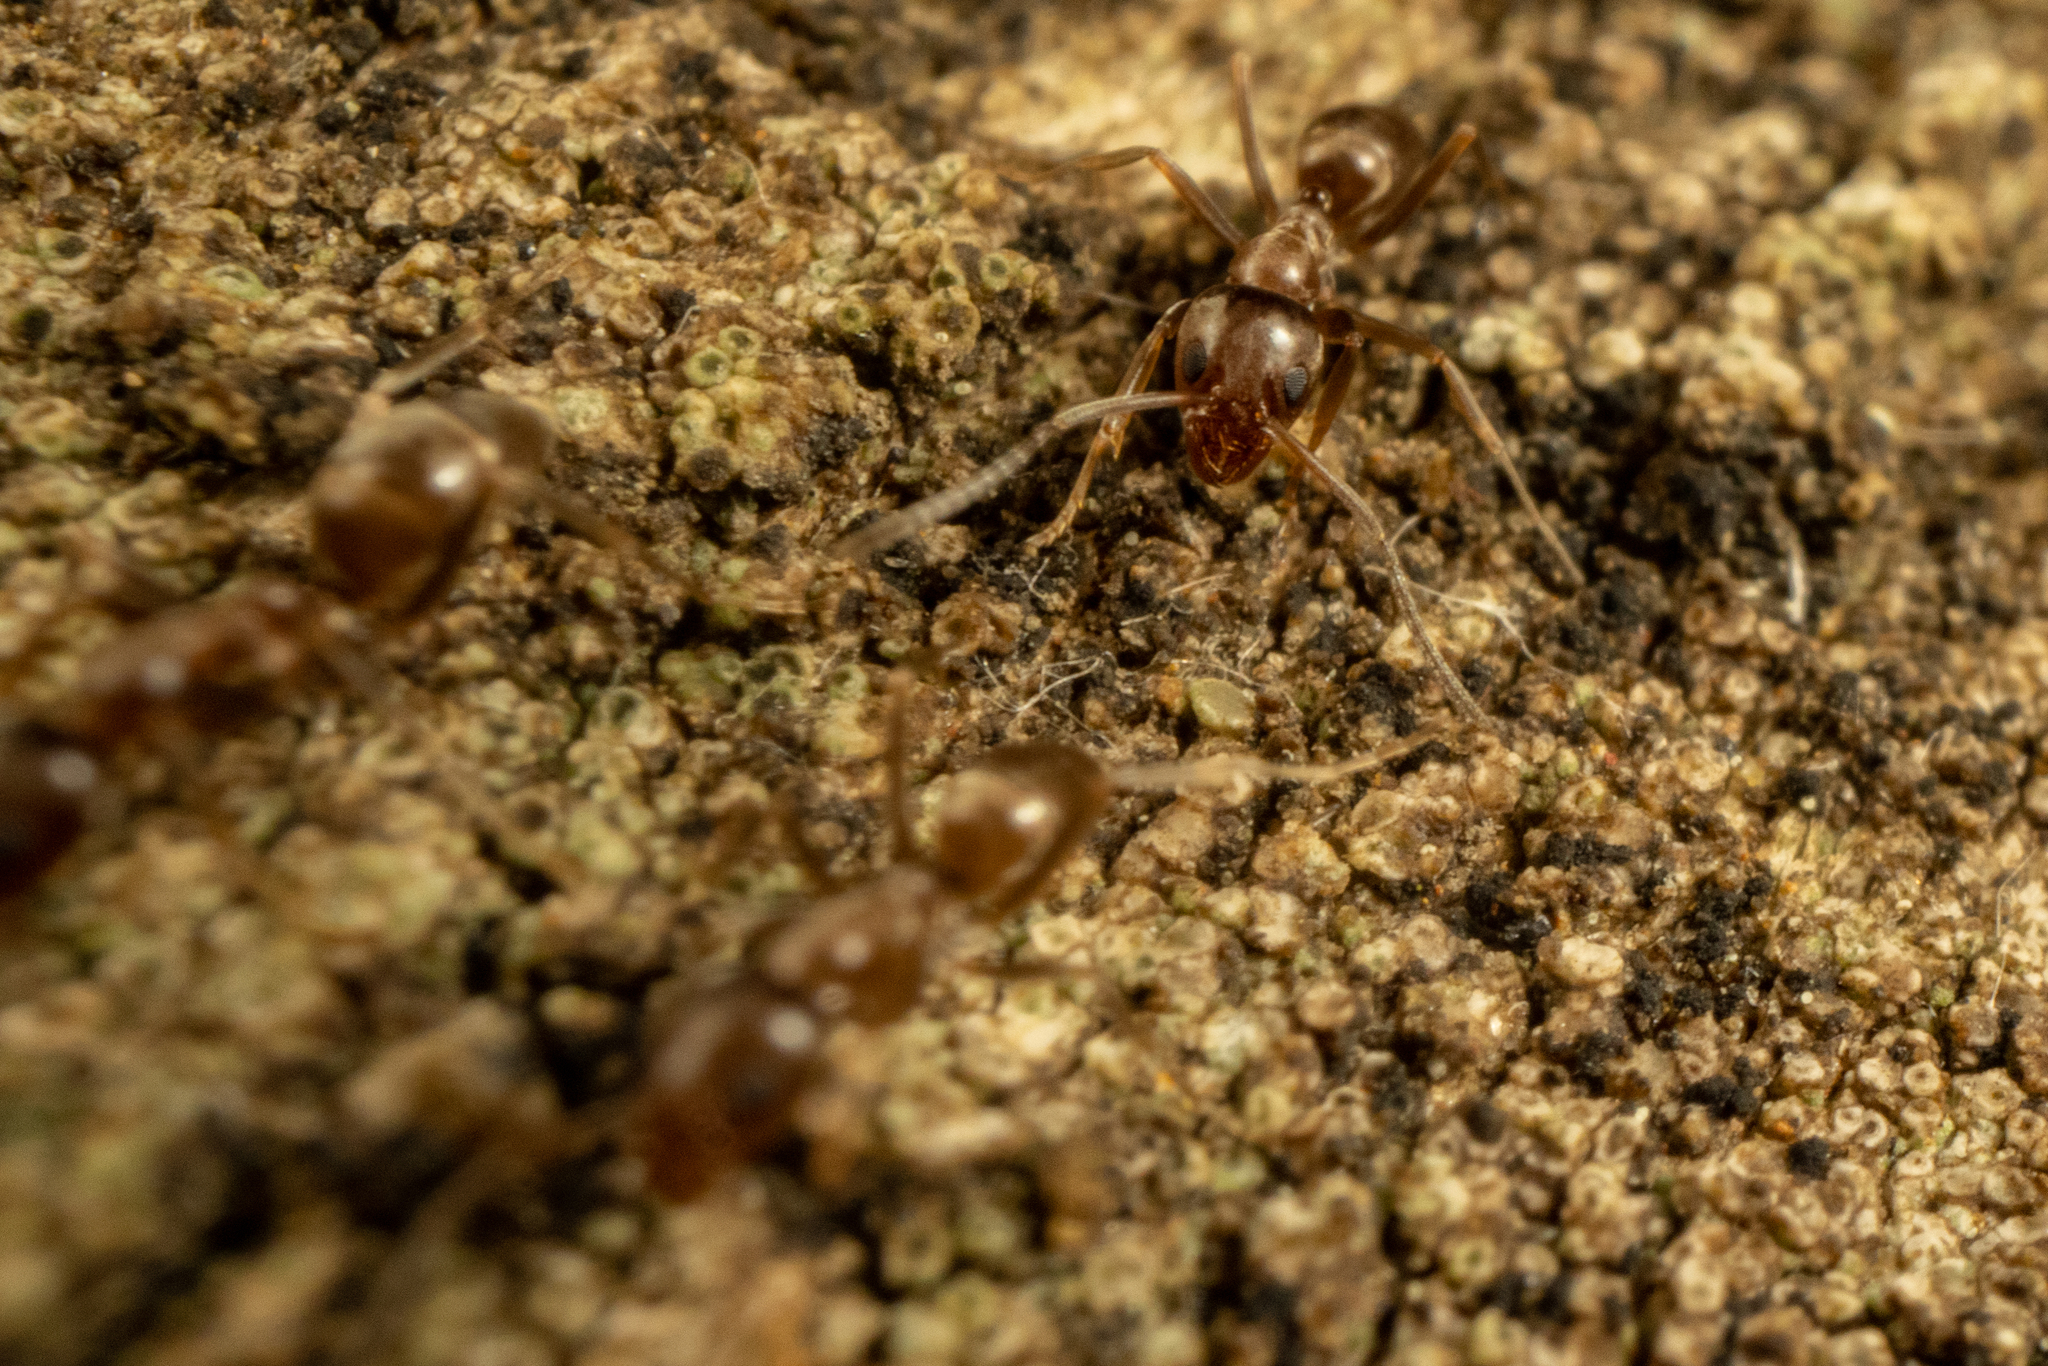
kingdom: Animalia
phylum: Arthropoda
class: Insecta
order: Hymenoptera
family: Formicidae
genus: Linepithema
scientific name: Linepithema humile
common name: Argentine ant
